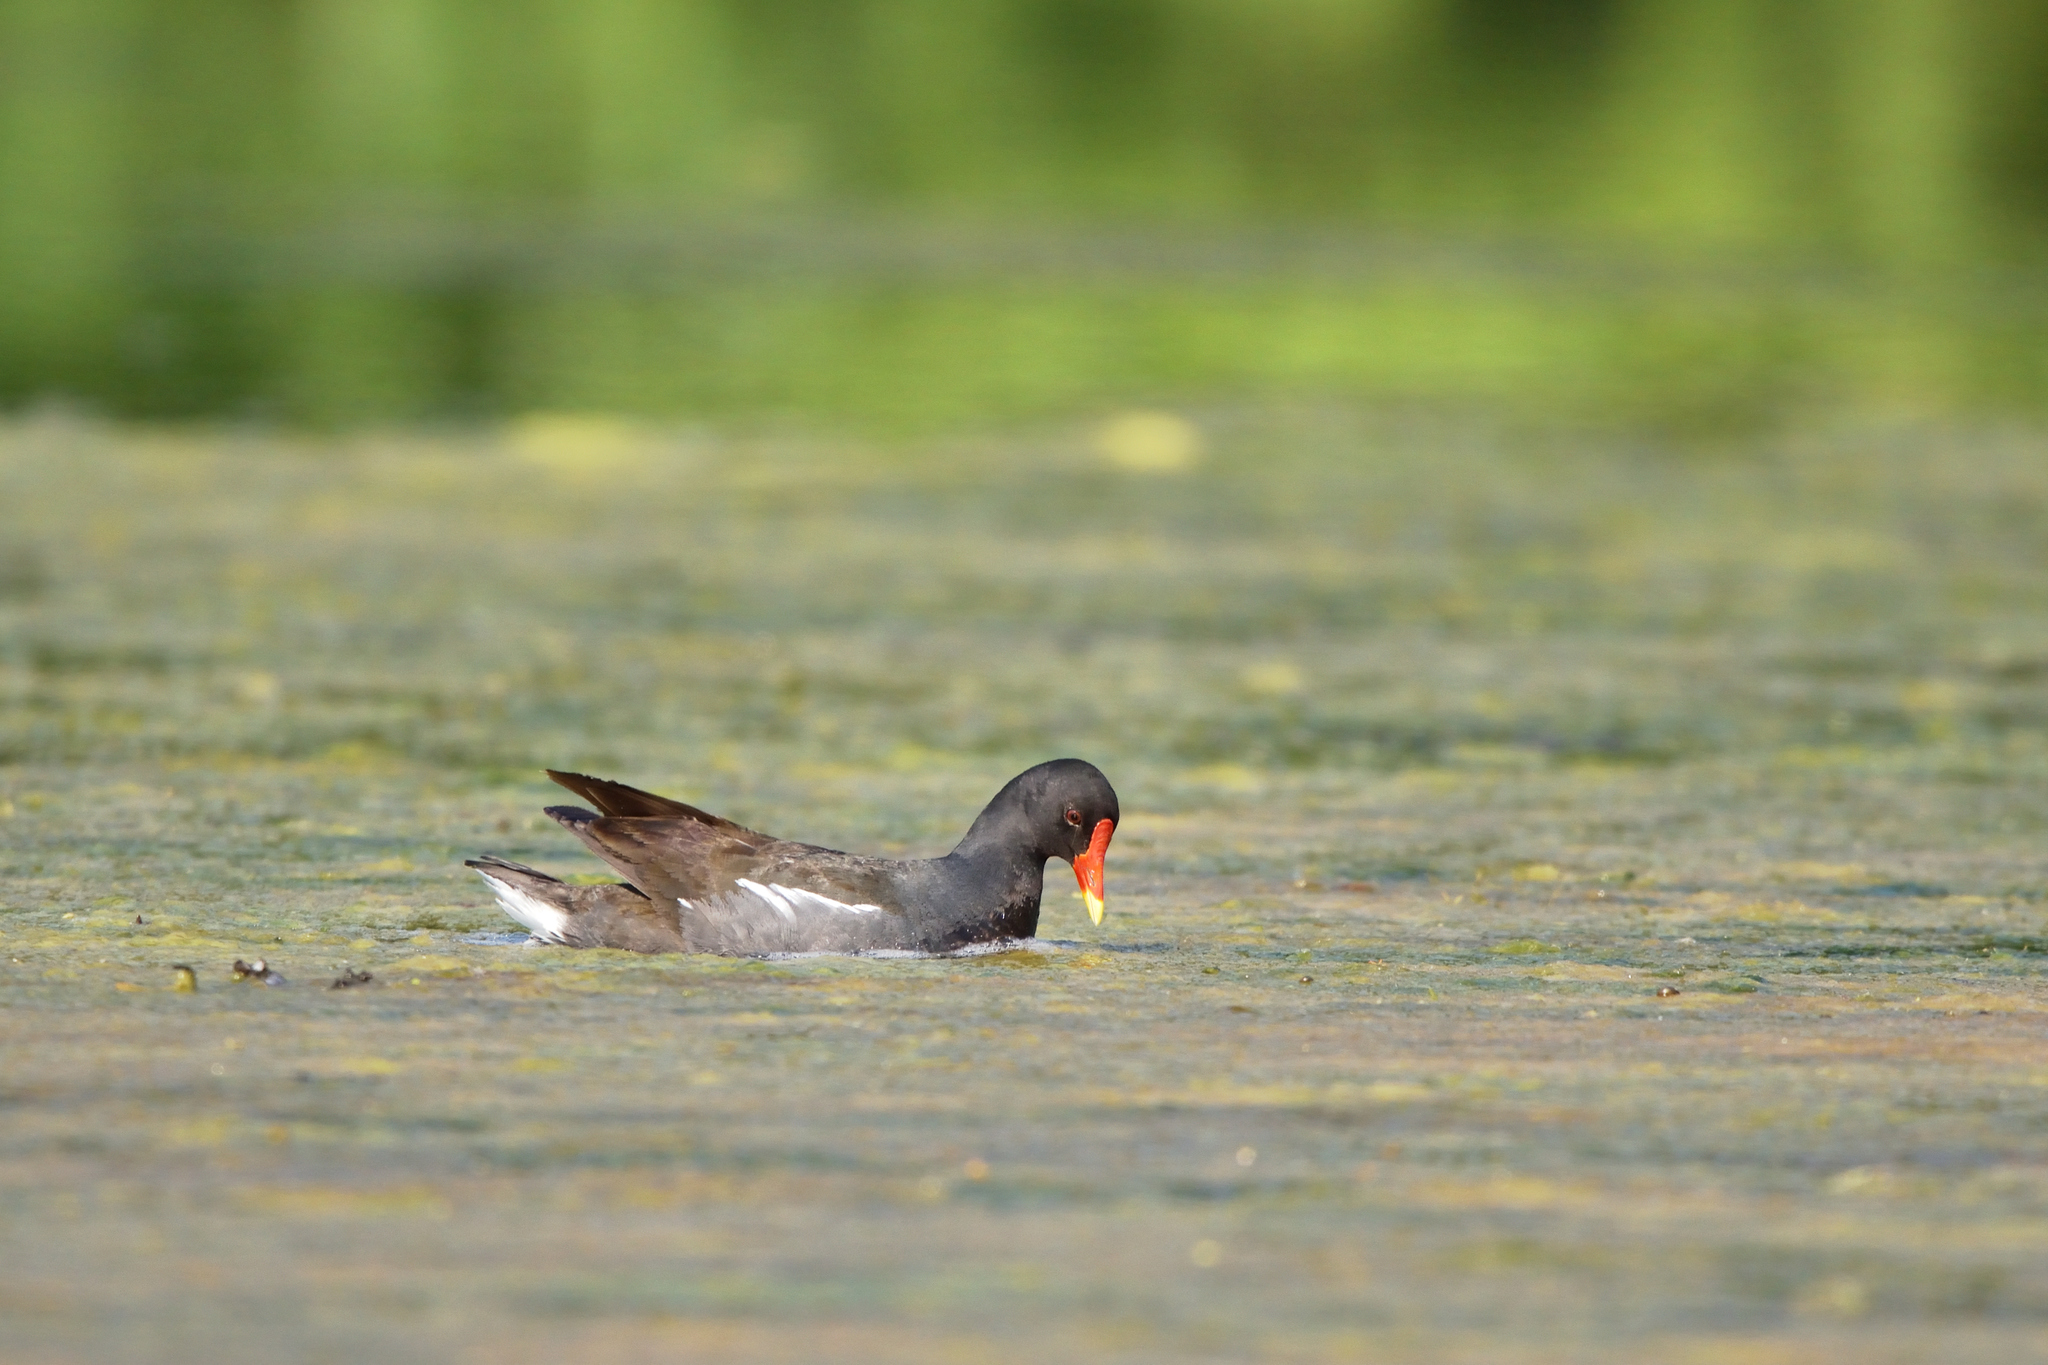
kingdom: Animalia
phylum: Chordata
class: Aves
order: Gruiformes
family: Rallidae
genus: Gallinula
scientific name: Gallinula chloropus
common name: Common moorhen
